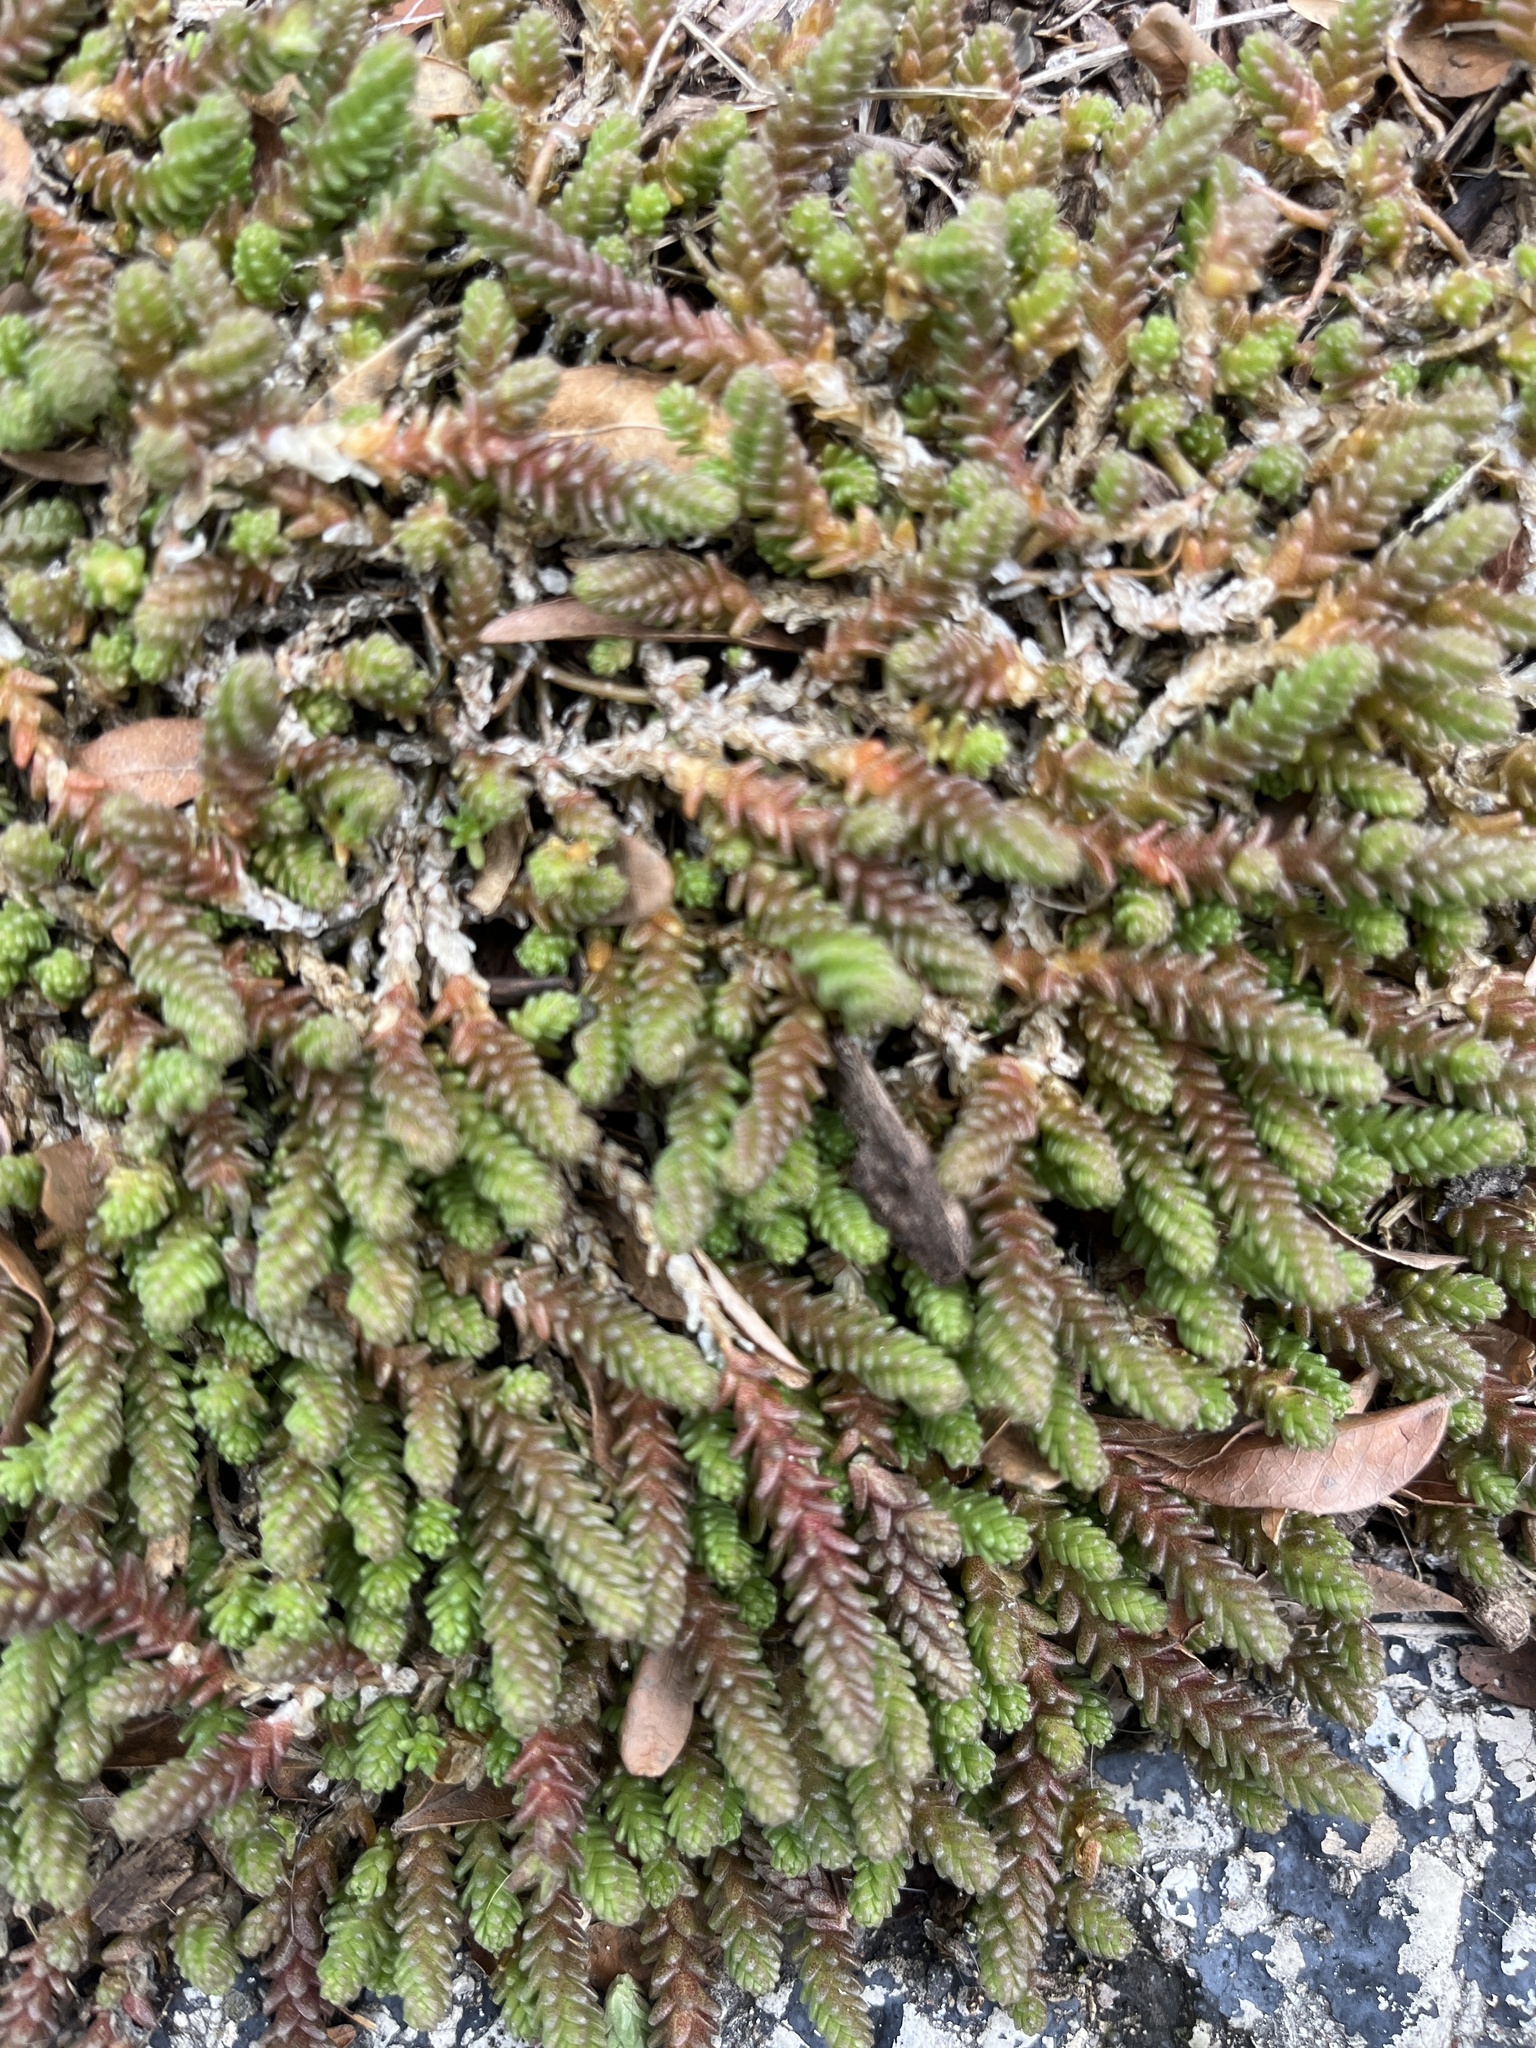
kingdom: Plantae
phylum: Tracheophyta
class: Magnoliopsida
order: Saxifragales
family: Crassulaceae
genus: Sedum
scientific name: Sedum acre
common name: Biting stonecrop
